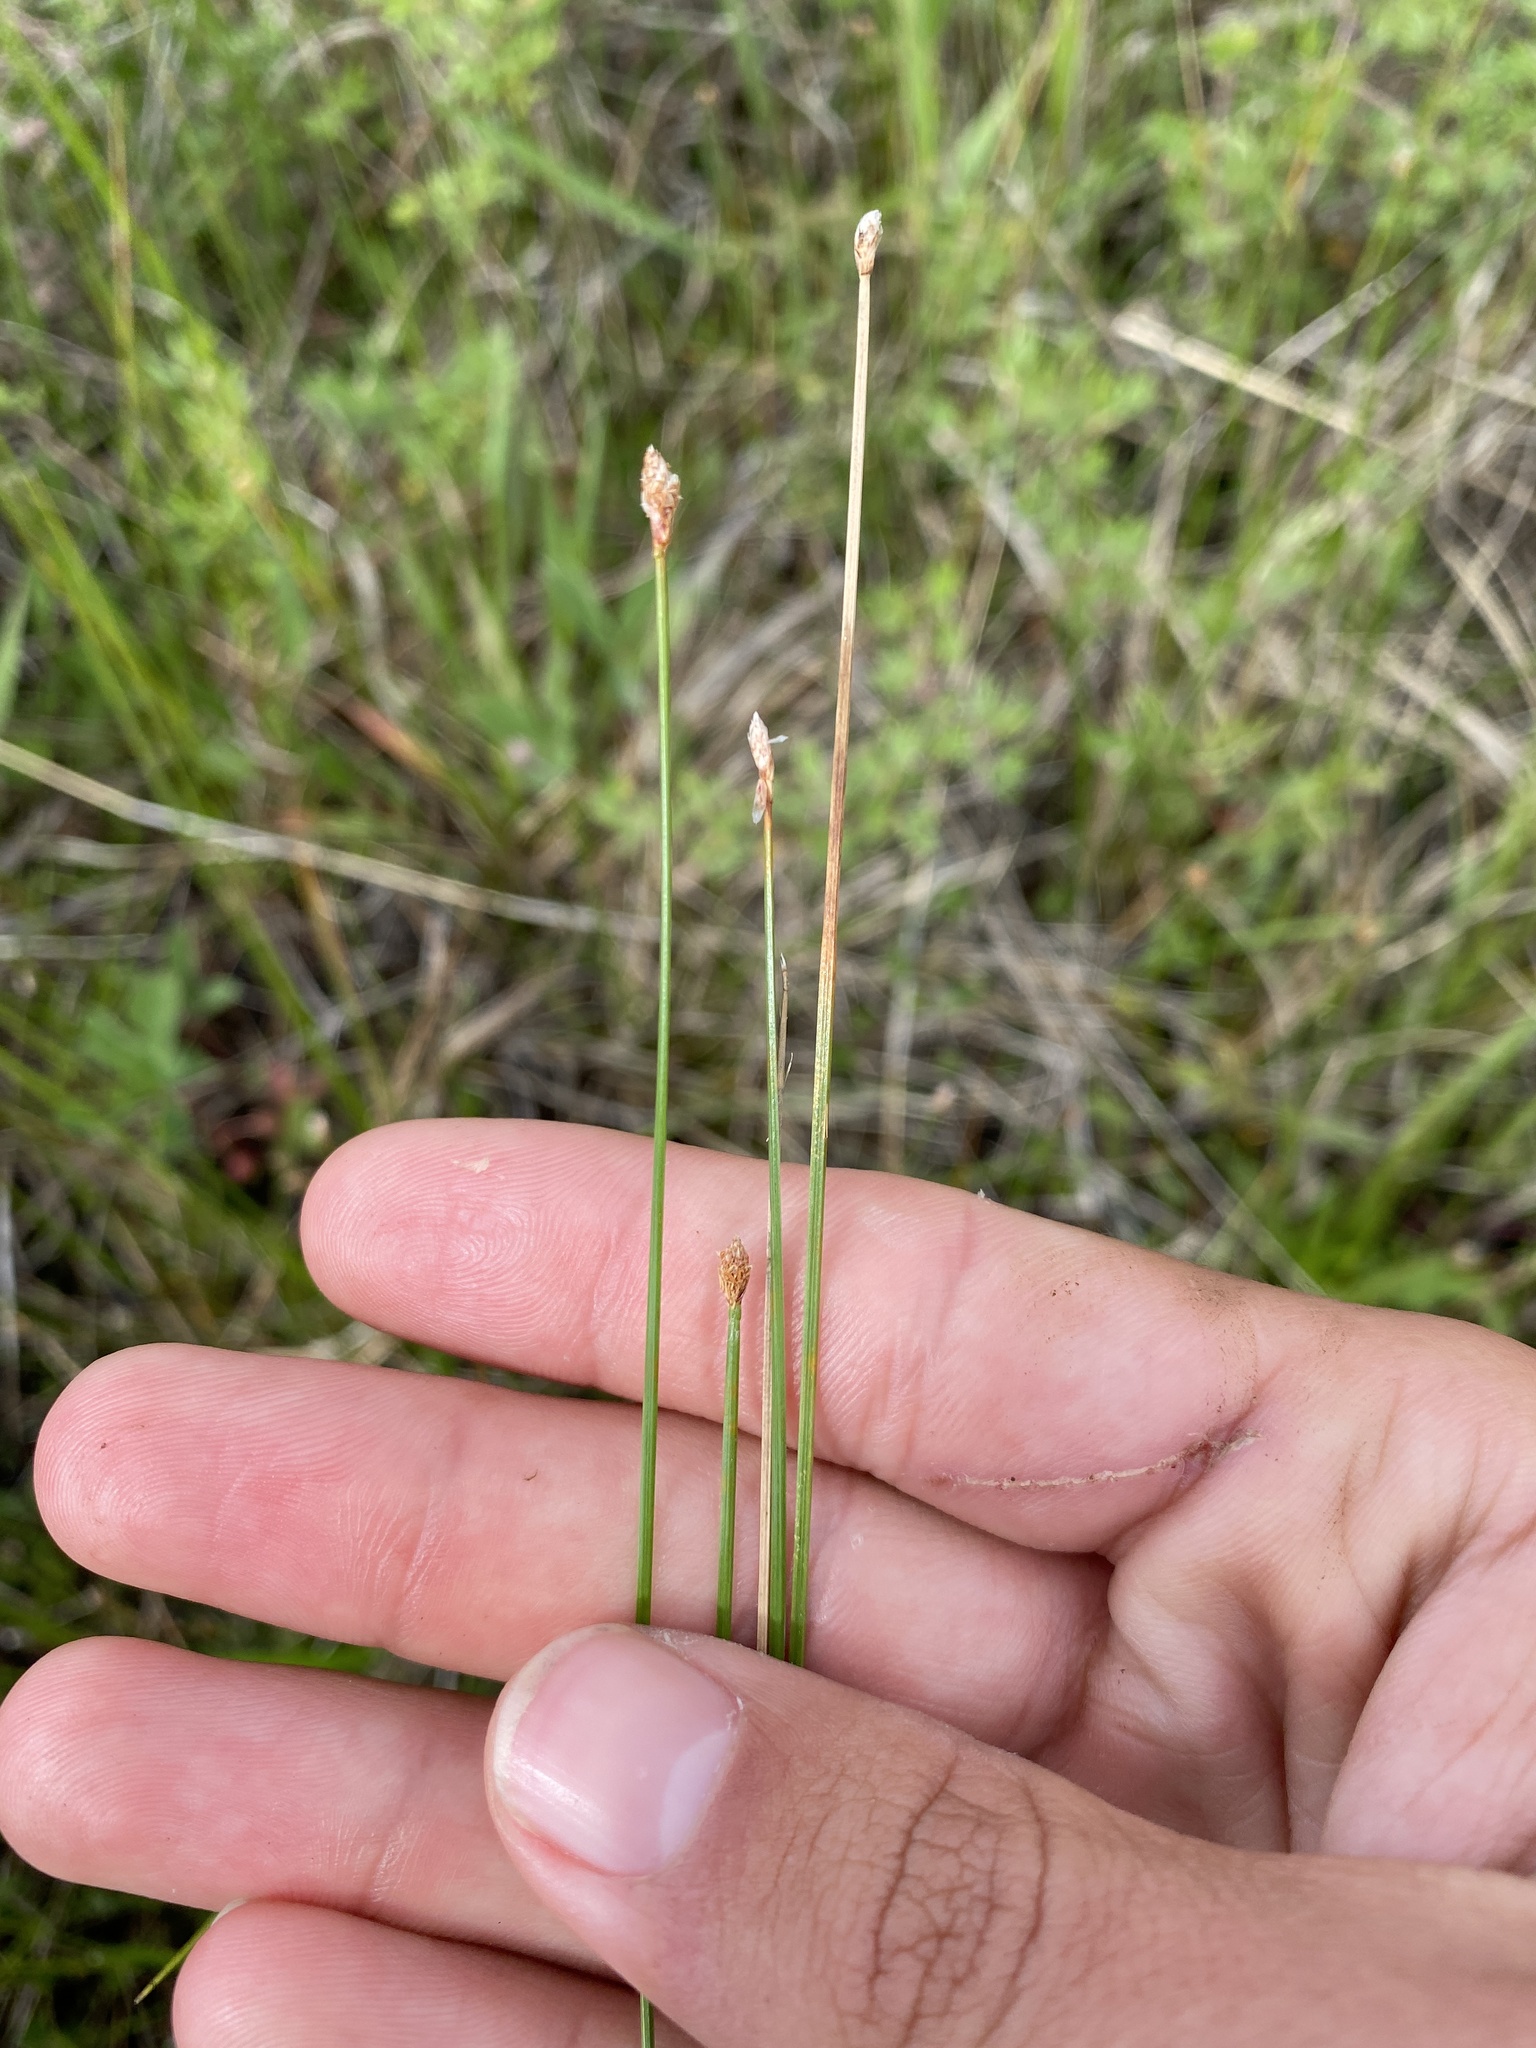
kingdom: Plantae
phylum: Tracheophyta
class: Liliopsida
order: Poales
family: Cyperaceae
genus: Eleocharis
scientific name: Eleocharis compressa
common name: Flat-stem spike-rush
